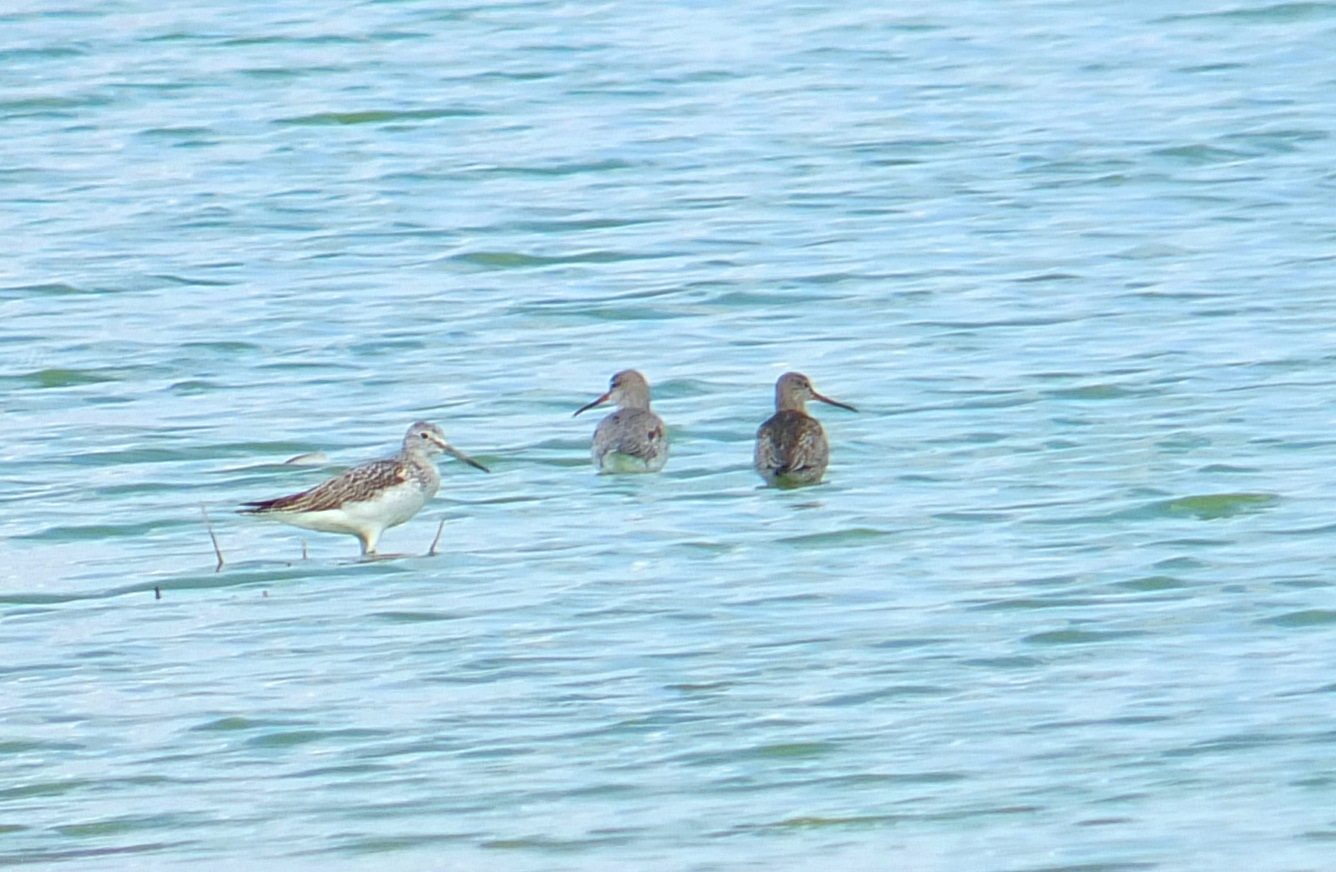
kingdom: Animalia
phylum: Chordata
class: Aves
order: Charadriiformes
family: Scolopacidae
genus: Tringa
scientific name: Tringa erythropus
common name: Spotted redshank
